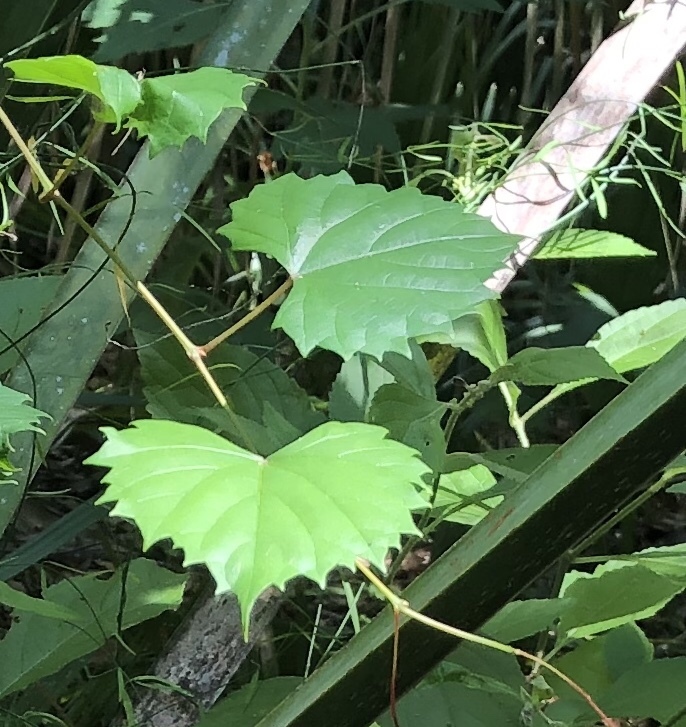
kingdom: Plantae
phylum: Tracheophyta
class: Magnoliopsida
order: Vitales
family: Vitaceae
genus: Vitis
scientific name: Vitis rotundifolia
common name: Muscadine grape
